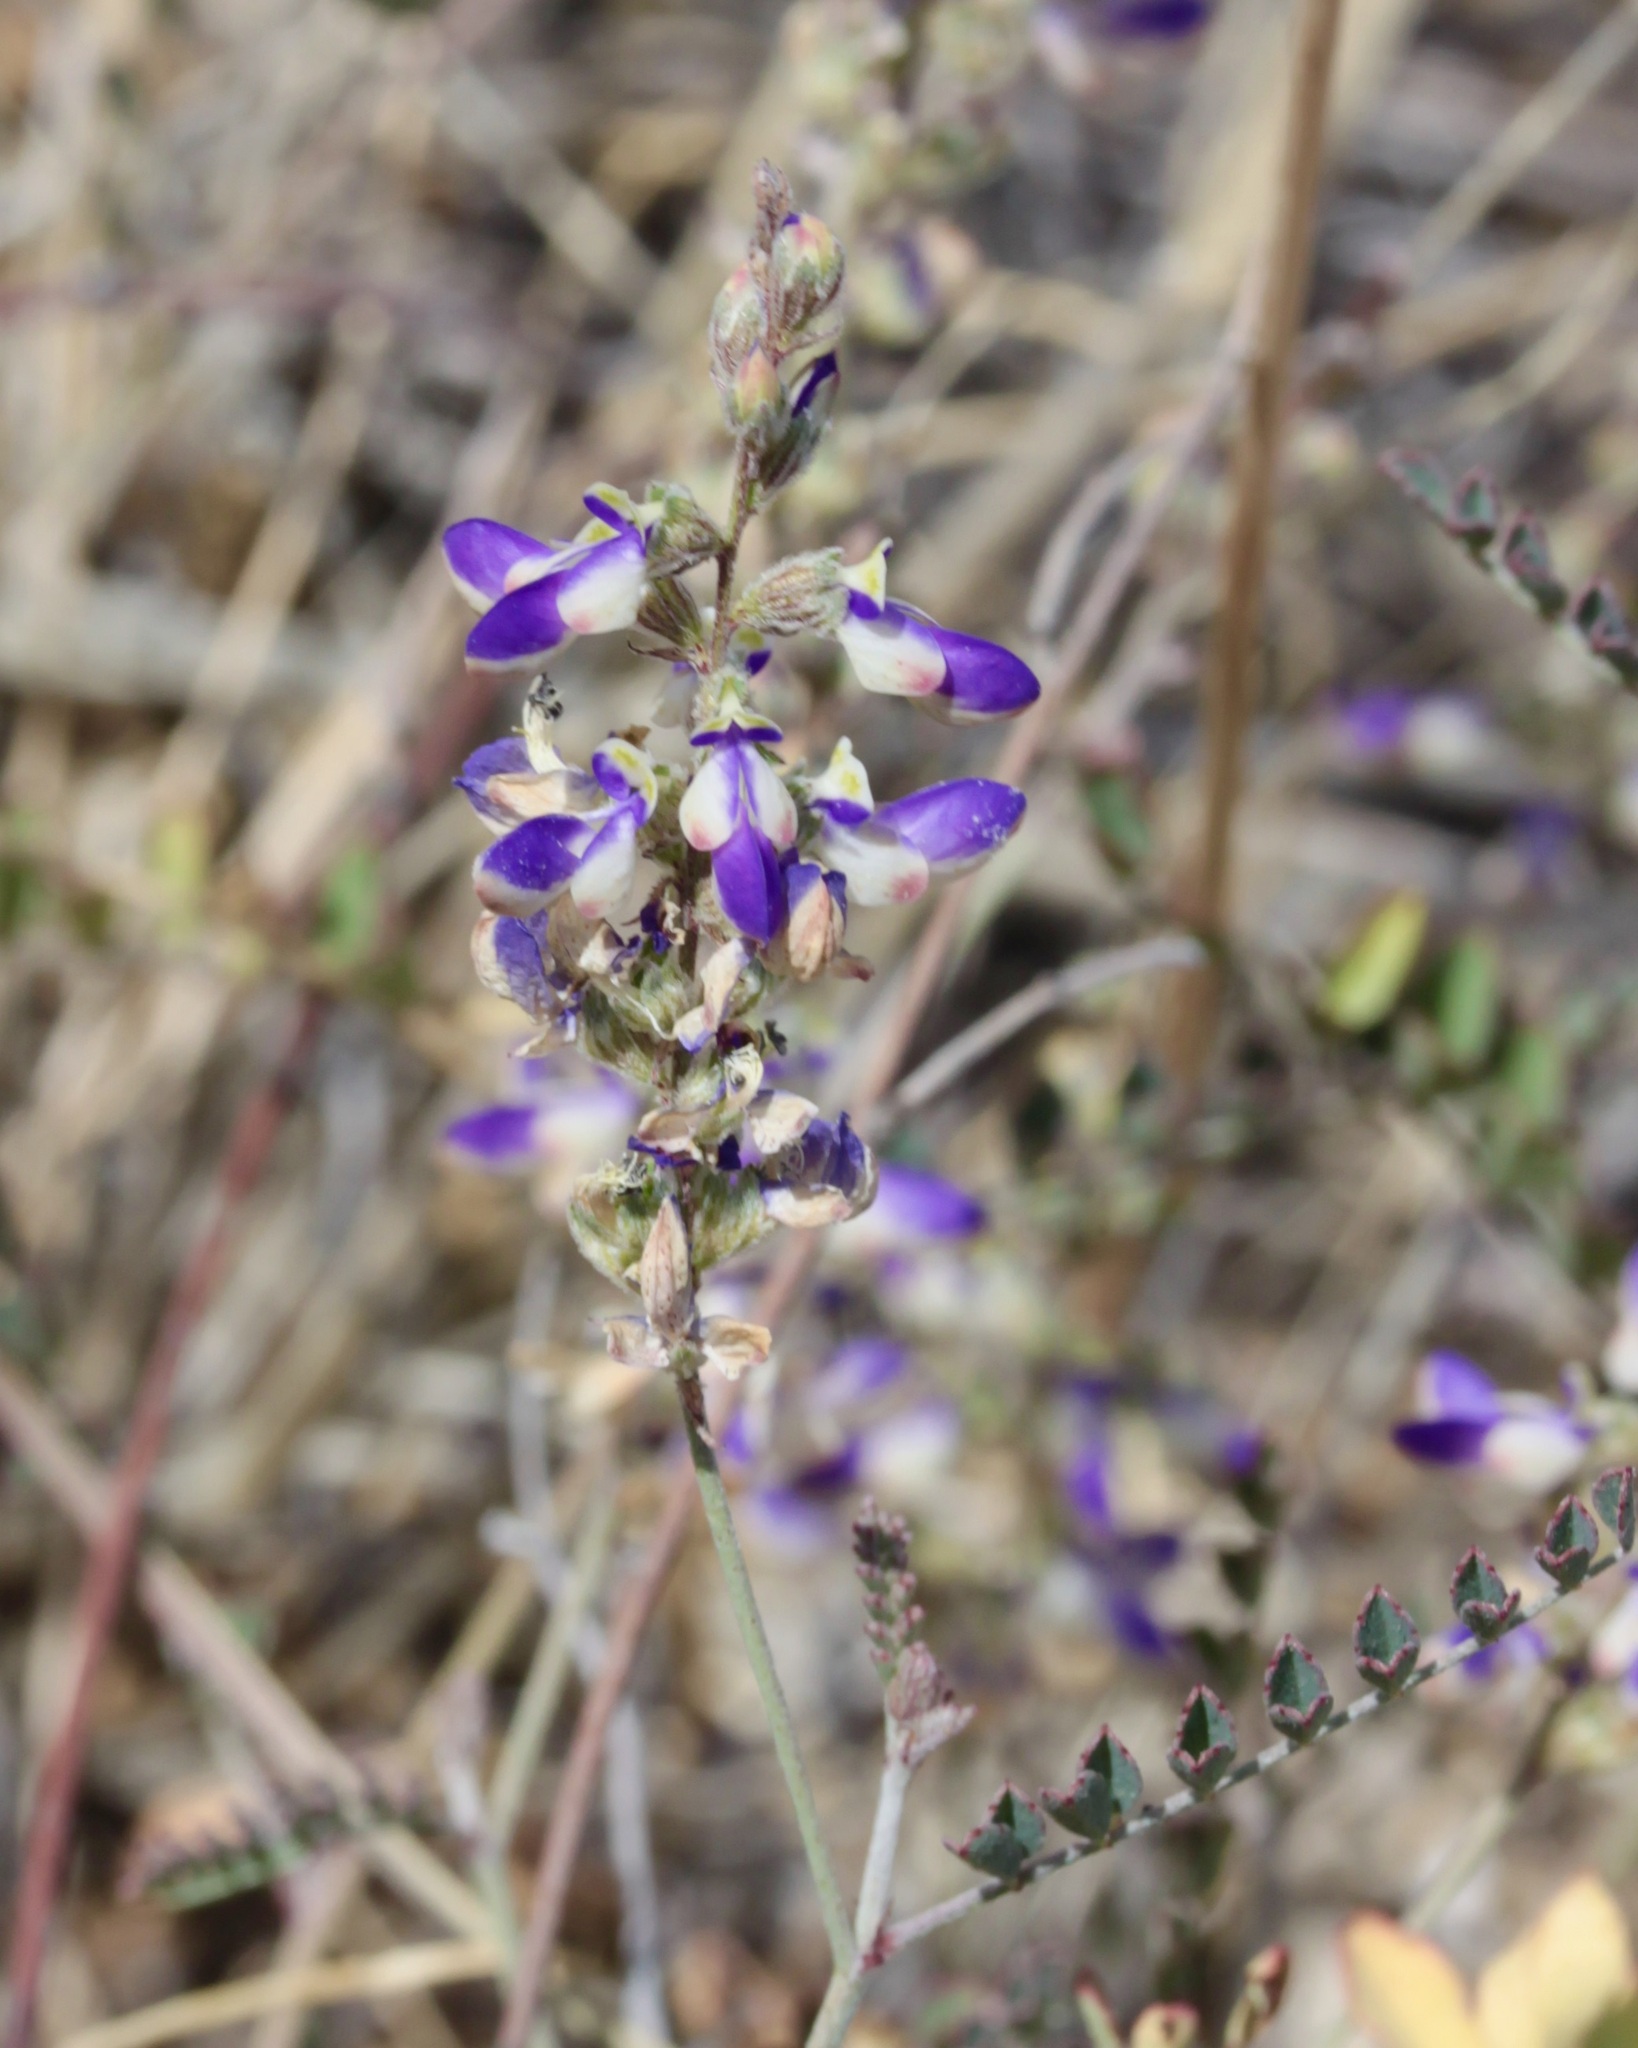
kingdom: Plantae
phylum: Tracheophyta
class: Magnoliopsida
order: Fabales
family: Fabaceae
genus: Marina
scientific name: Marina parryi
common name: Parry's marina
